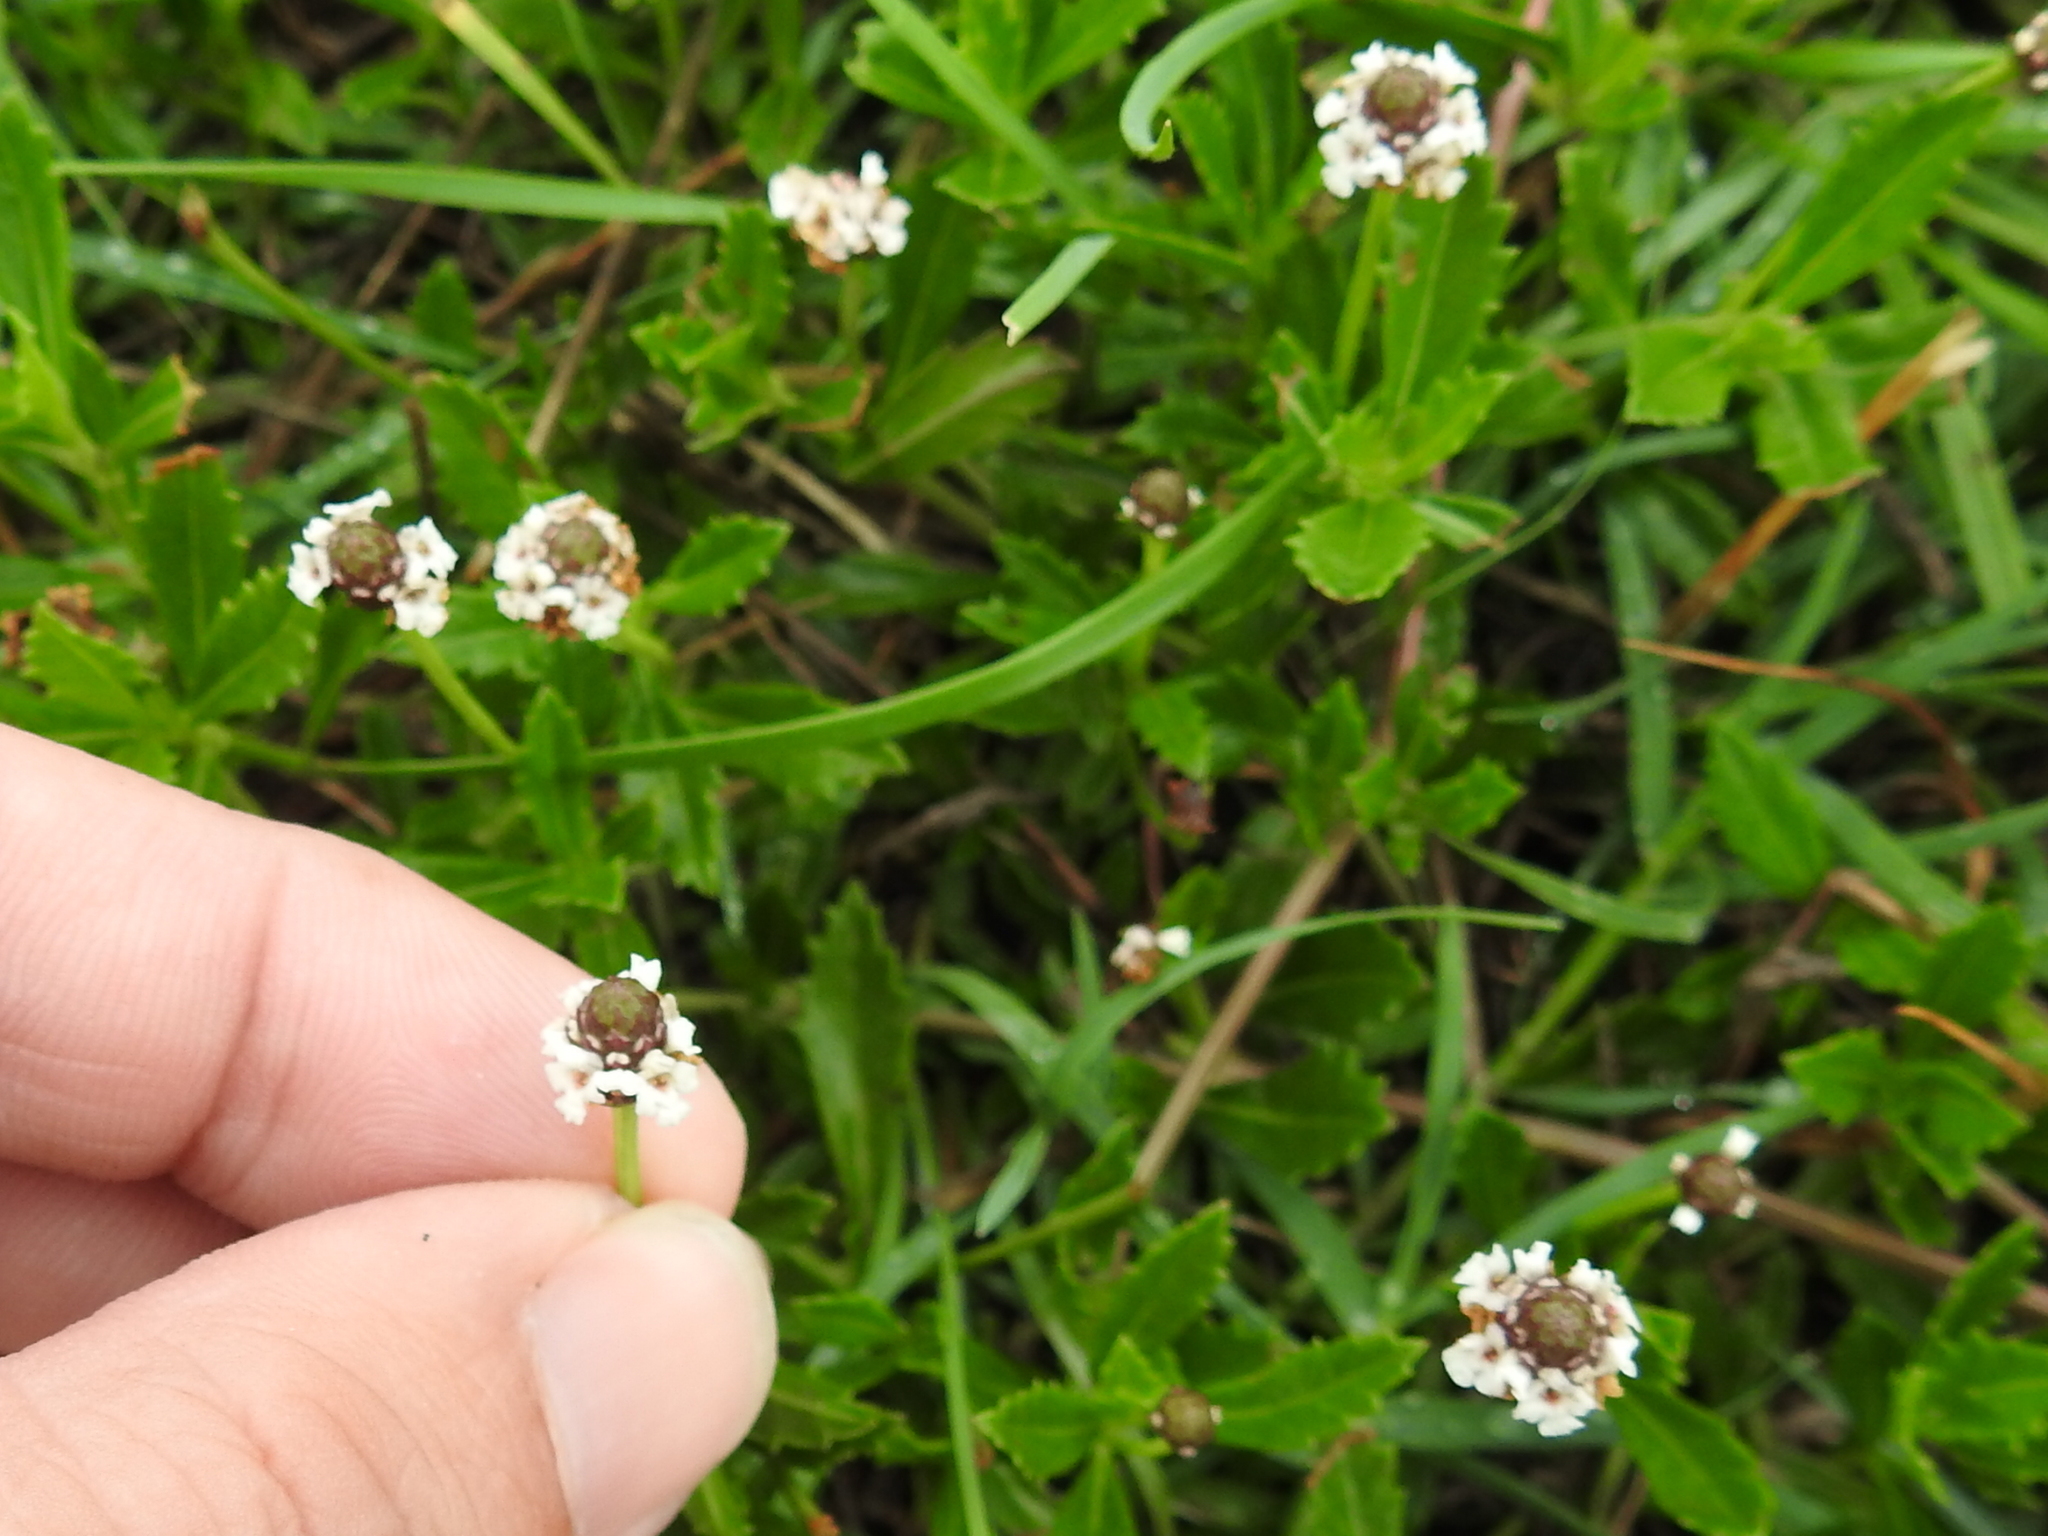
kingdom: Plantae
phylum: Tracheophyta
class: Magnoliopsida
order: Lamiales
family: Verbenaceae
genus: Phyla
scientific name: Phyla nodiflora
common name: Frogfruit
